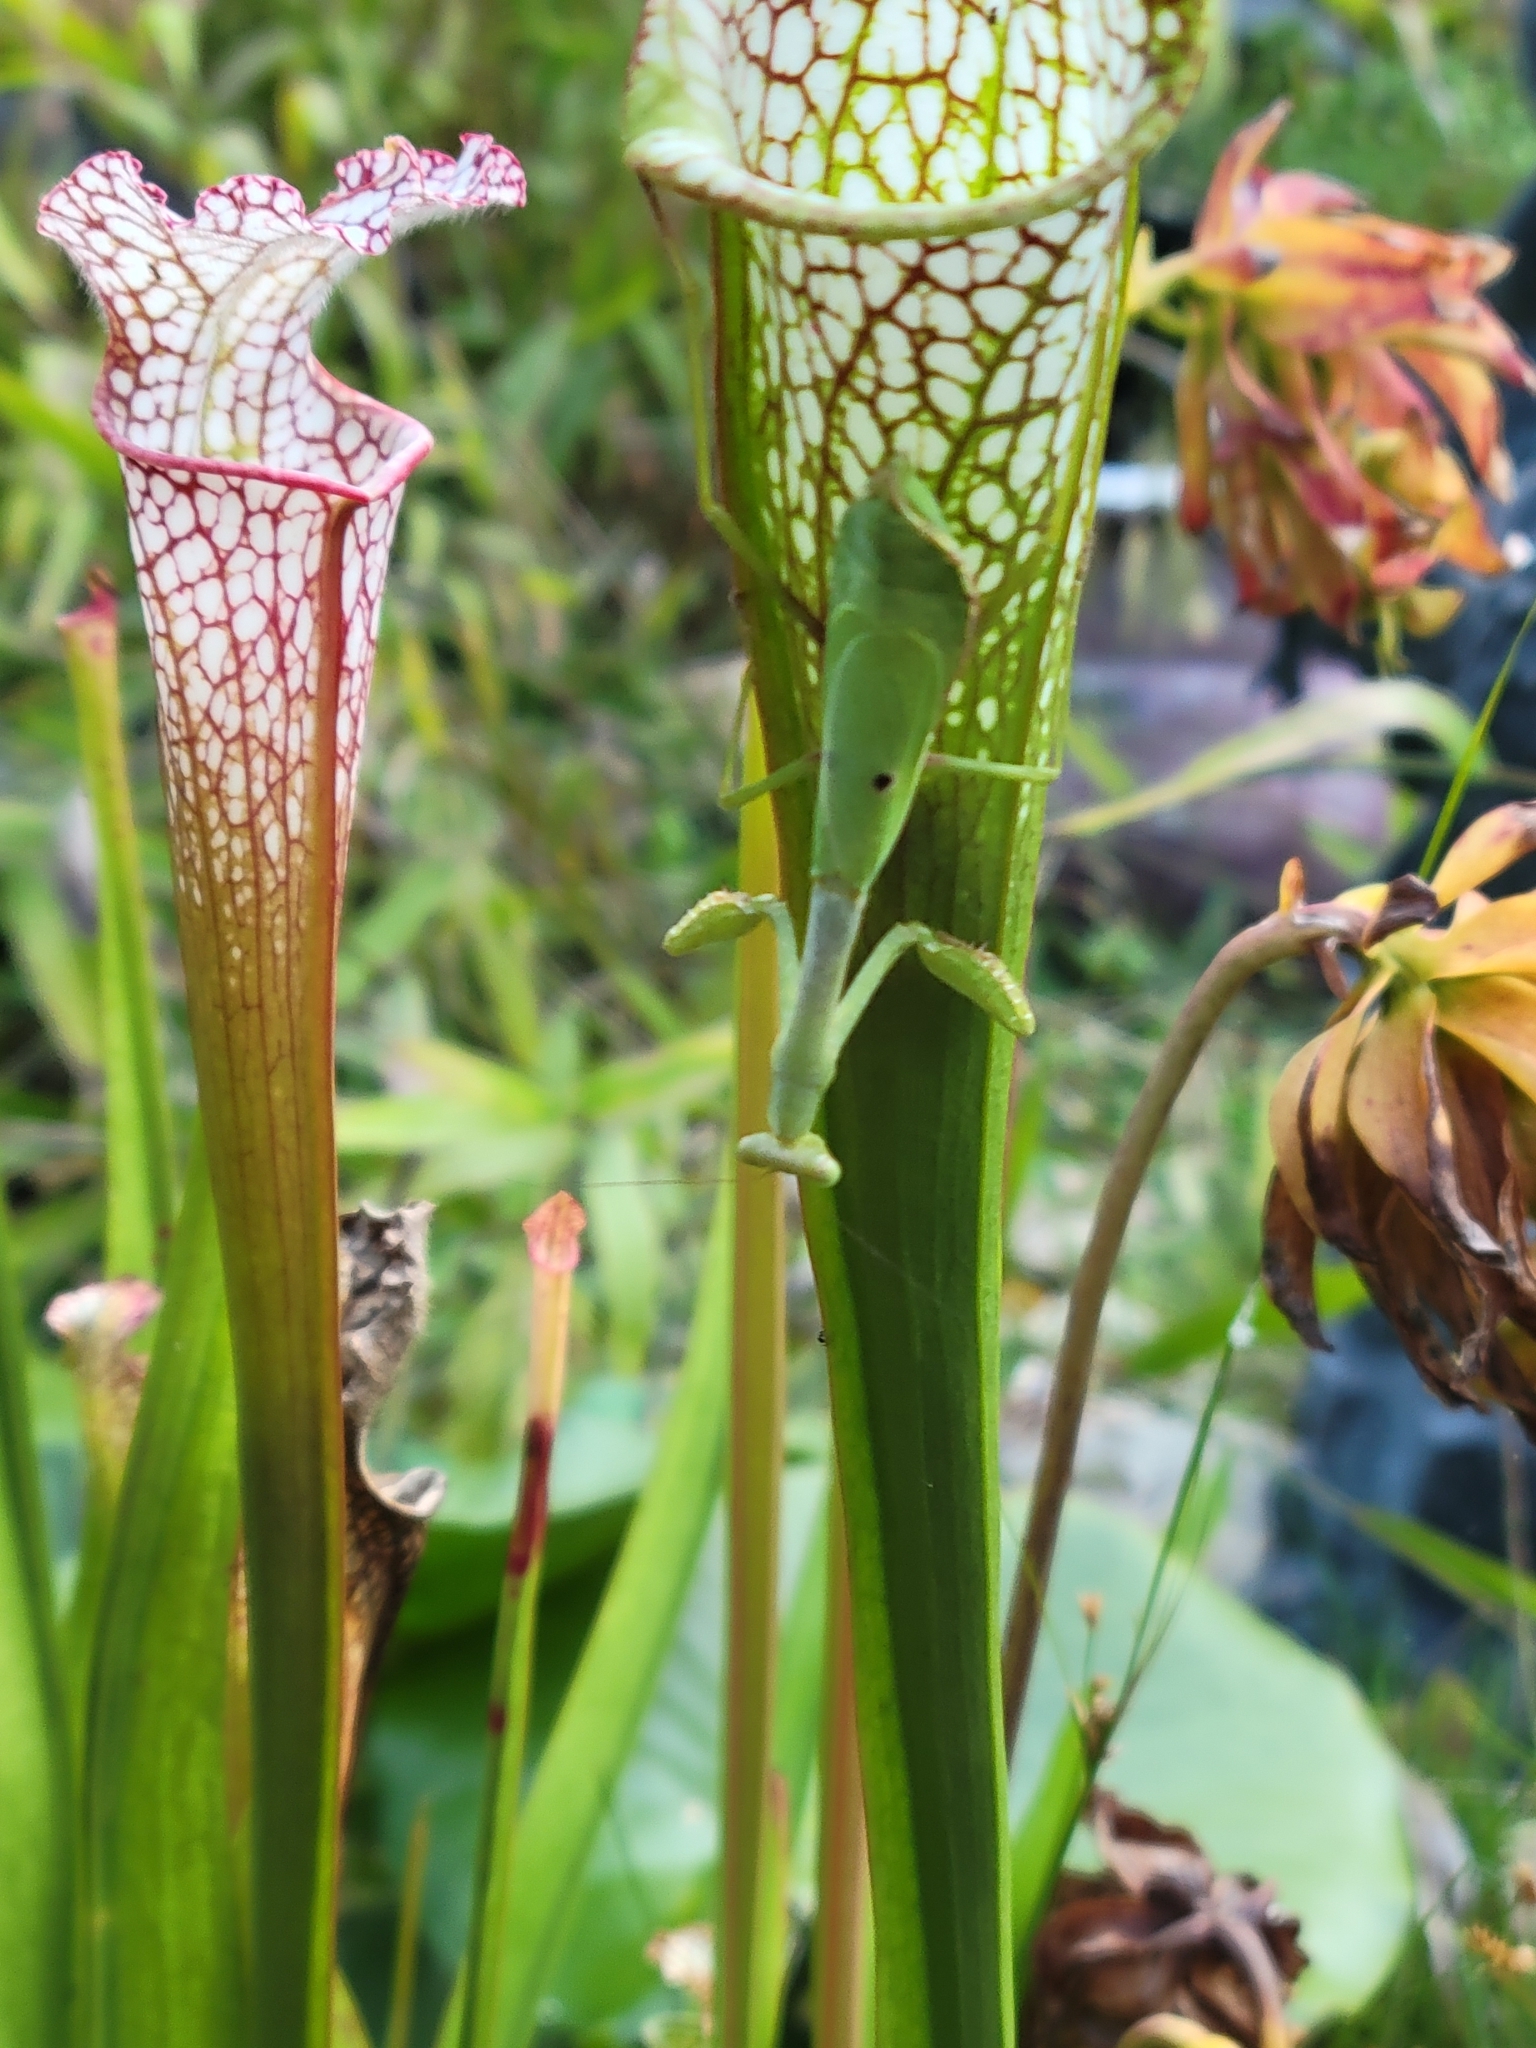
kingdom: Animalia
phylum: Arthropoda
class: Insecta
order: Mantodea
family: Mantidae
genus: Stagmomantis
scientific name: Stagmomantis carolina
